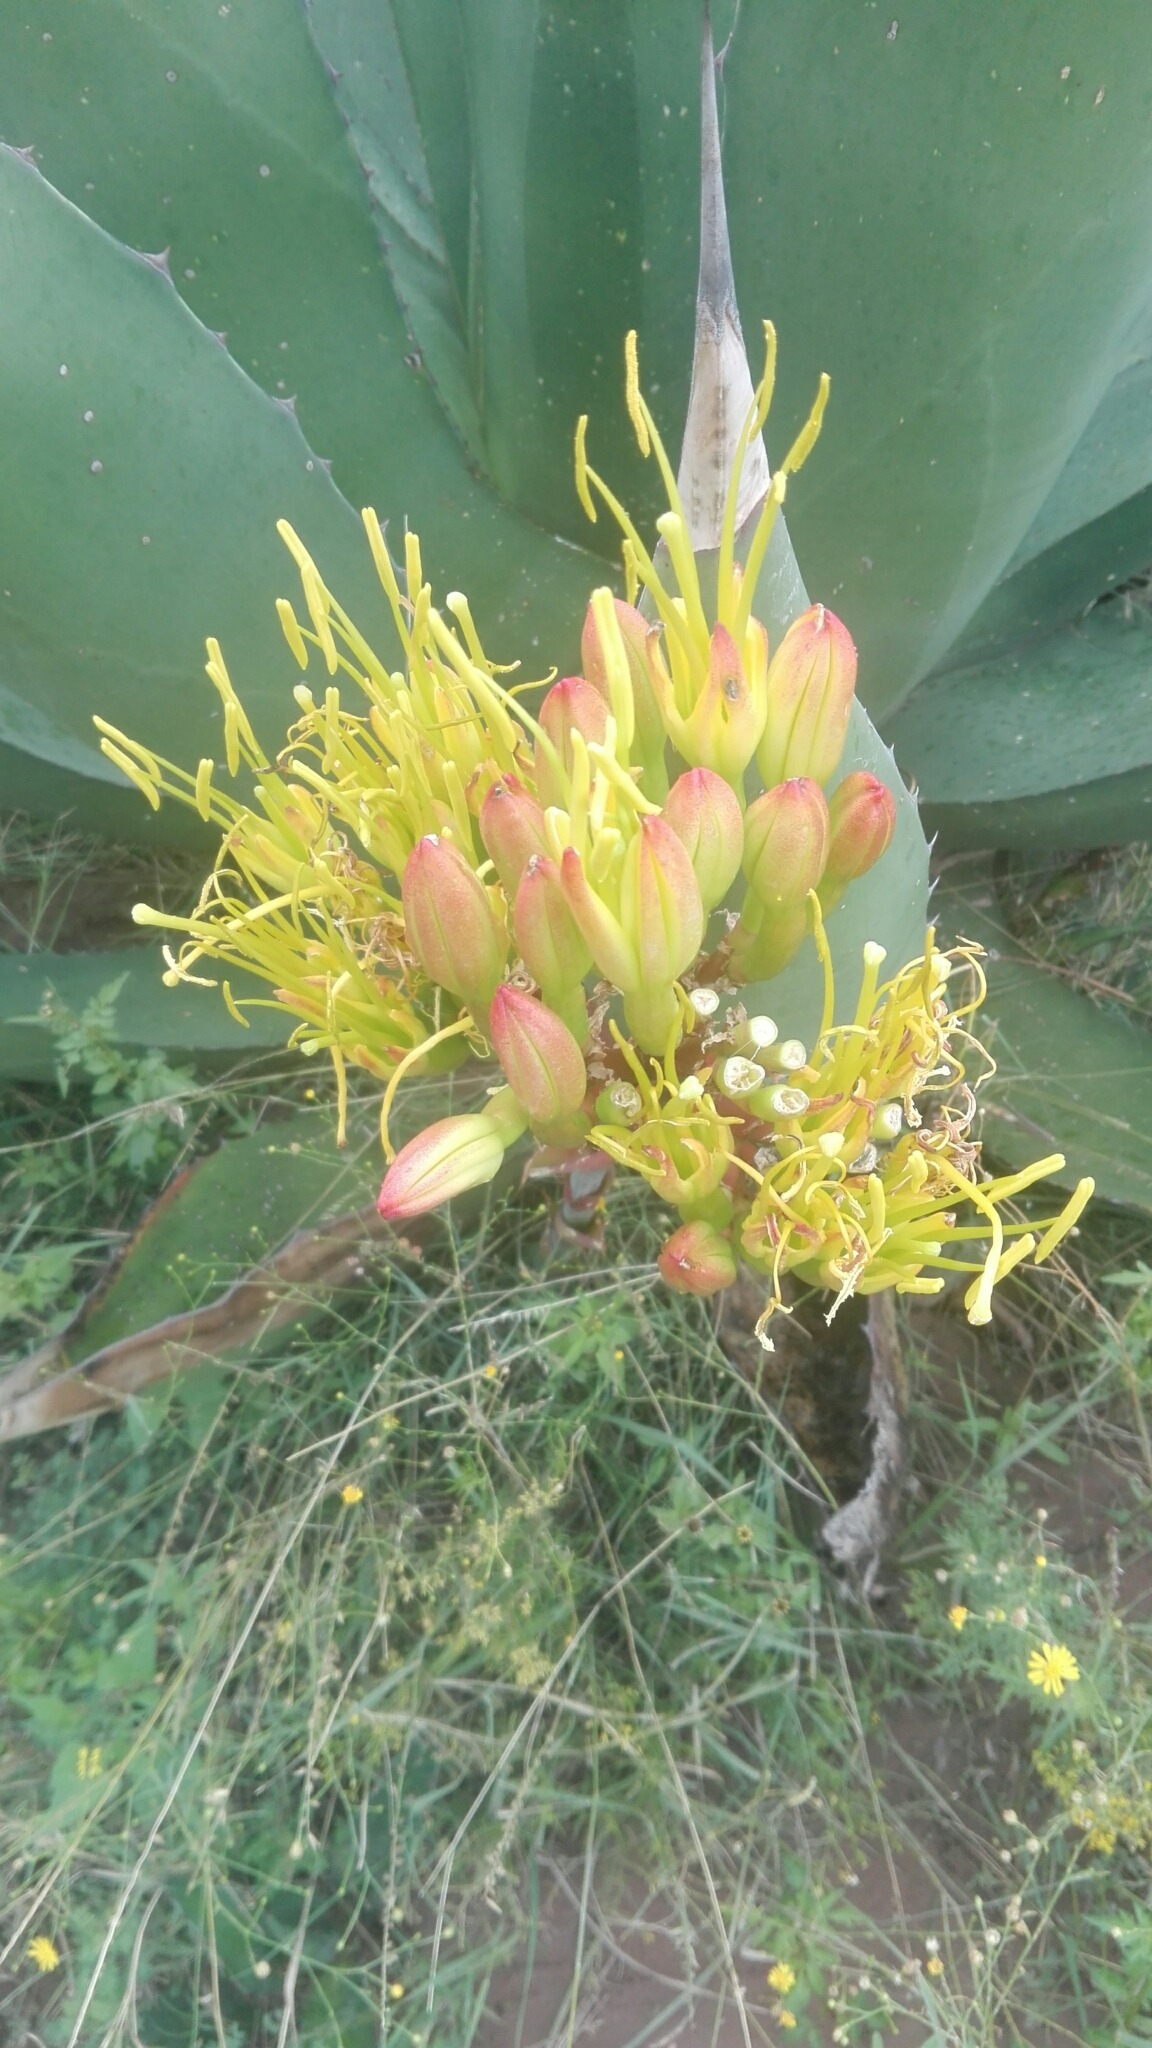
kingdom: Plantae
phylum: Tracheophyta
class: Liliopsida
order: Asparagales
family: Asparagaceae
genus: Agave
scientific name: Agave salmiana
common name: Pulque agave
